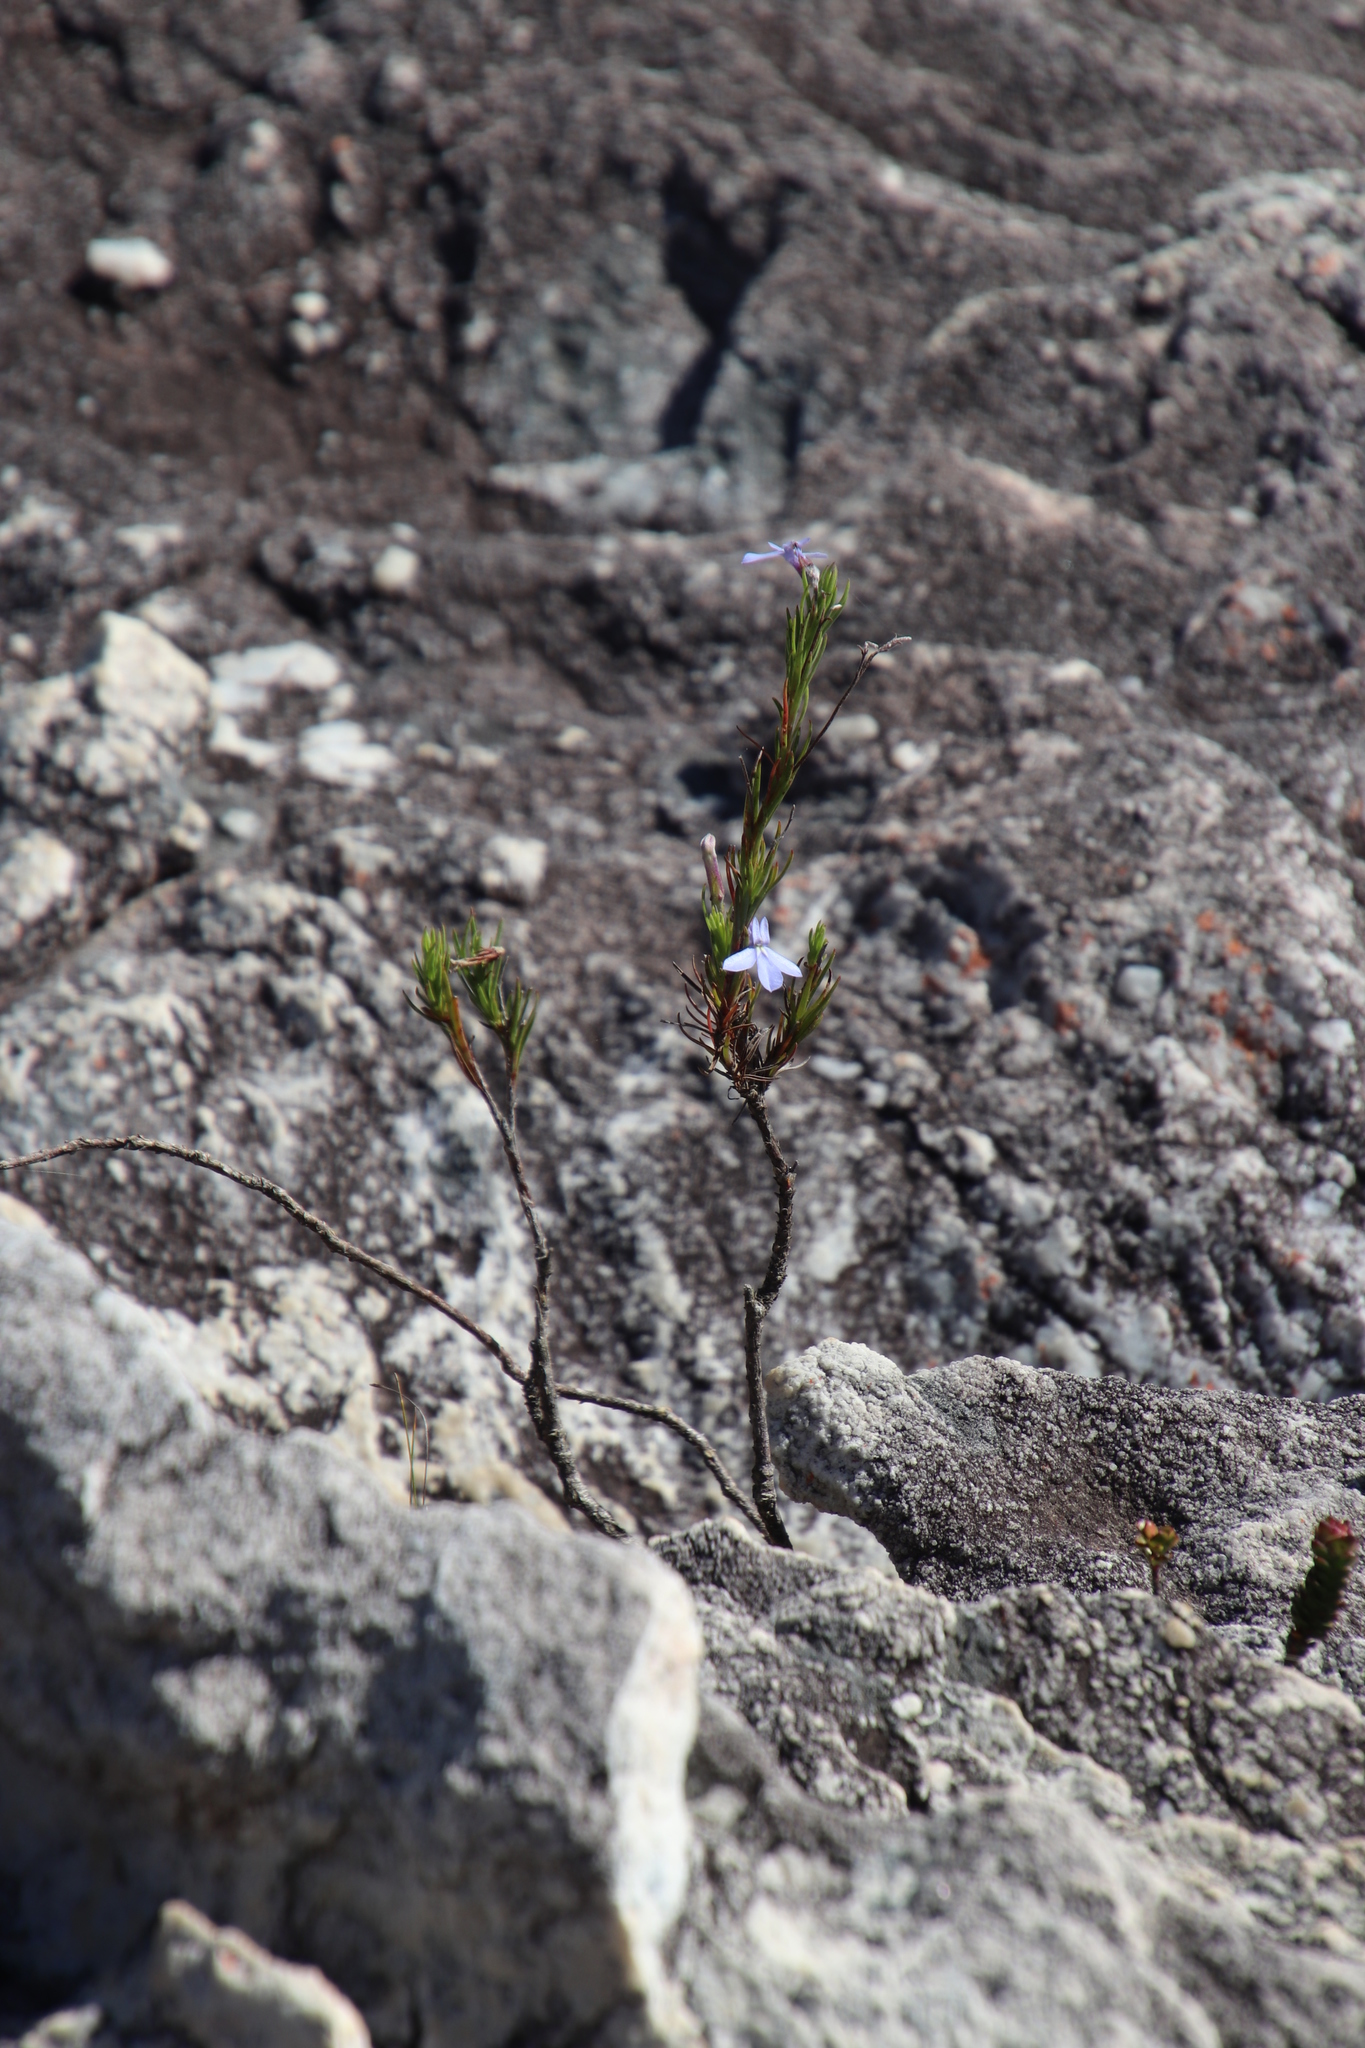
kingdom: Plantae
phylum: Tracheophyta
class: Magnoliopsida
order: Asterales
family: Campanulaceae
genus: Lobelia
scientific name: Lobelia pinifolia
